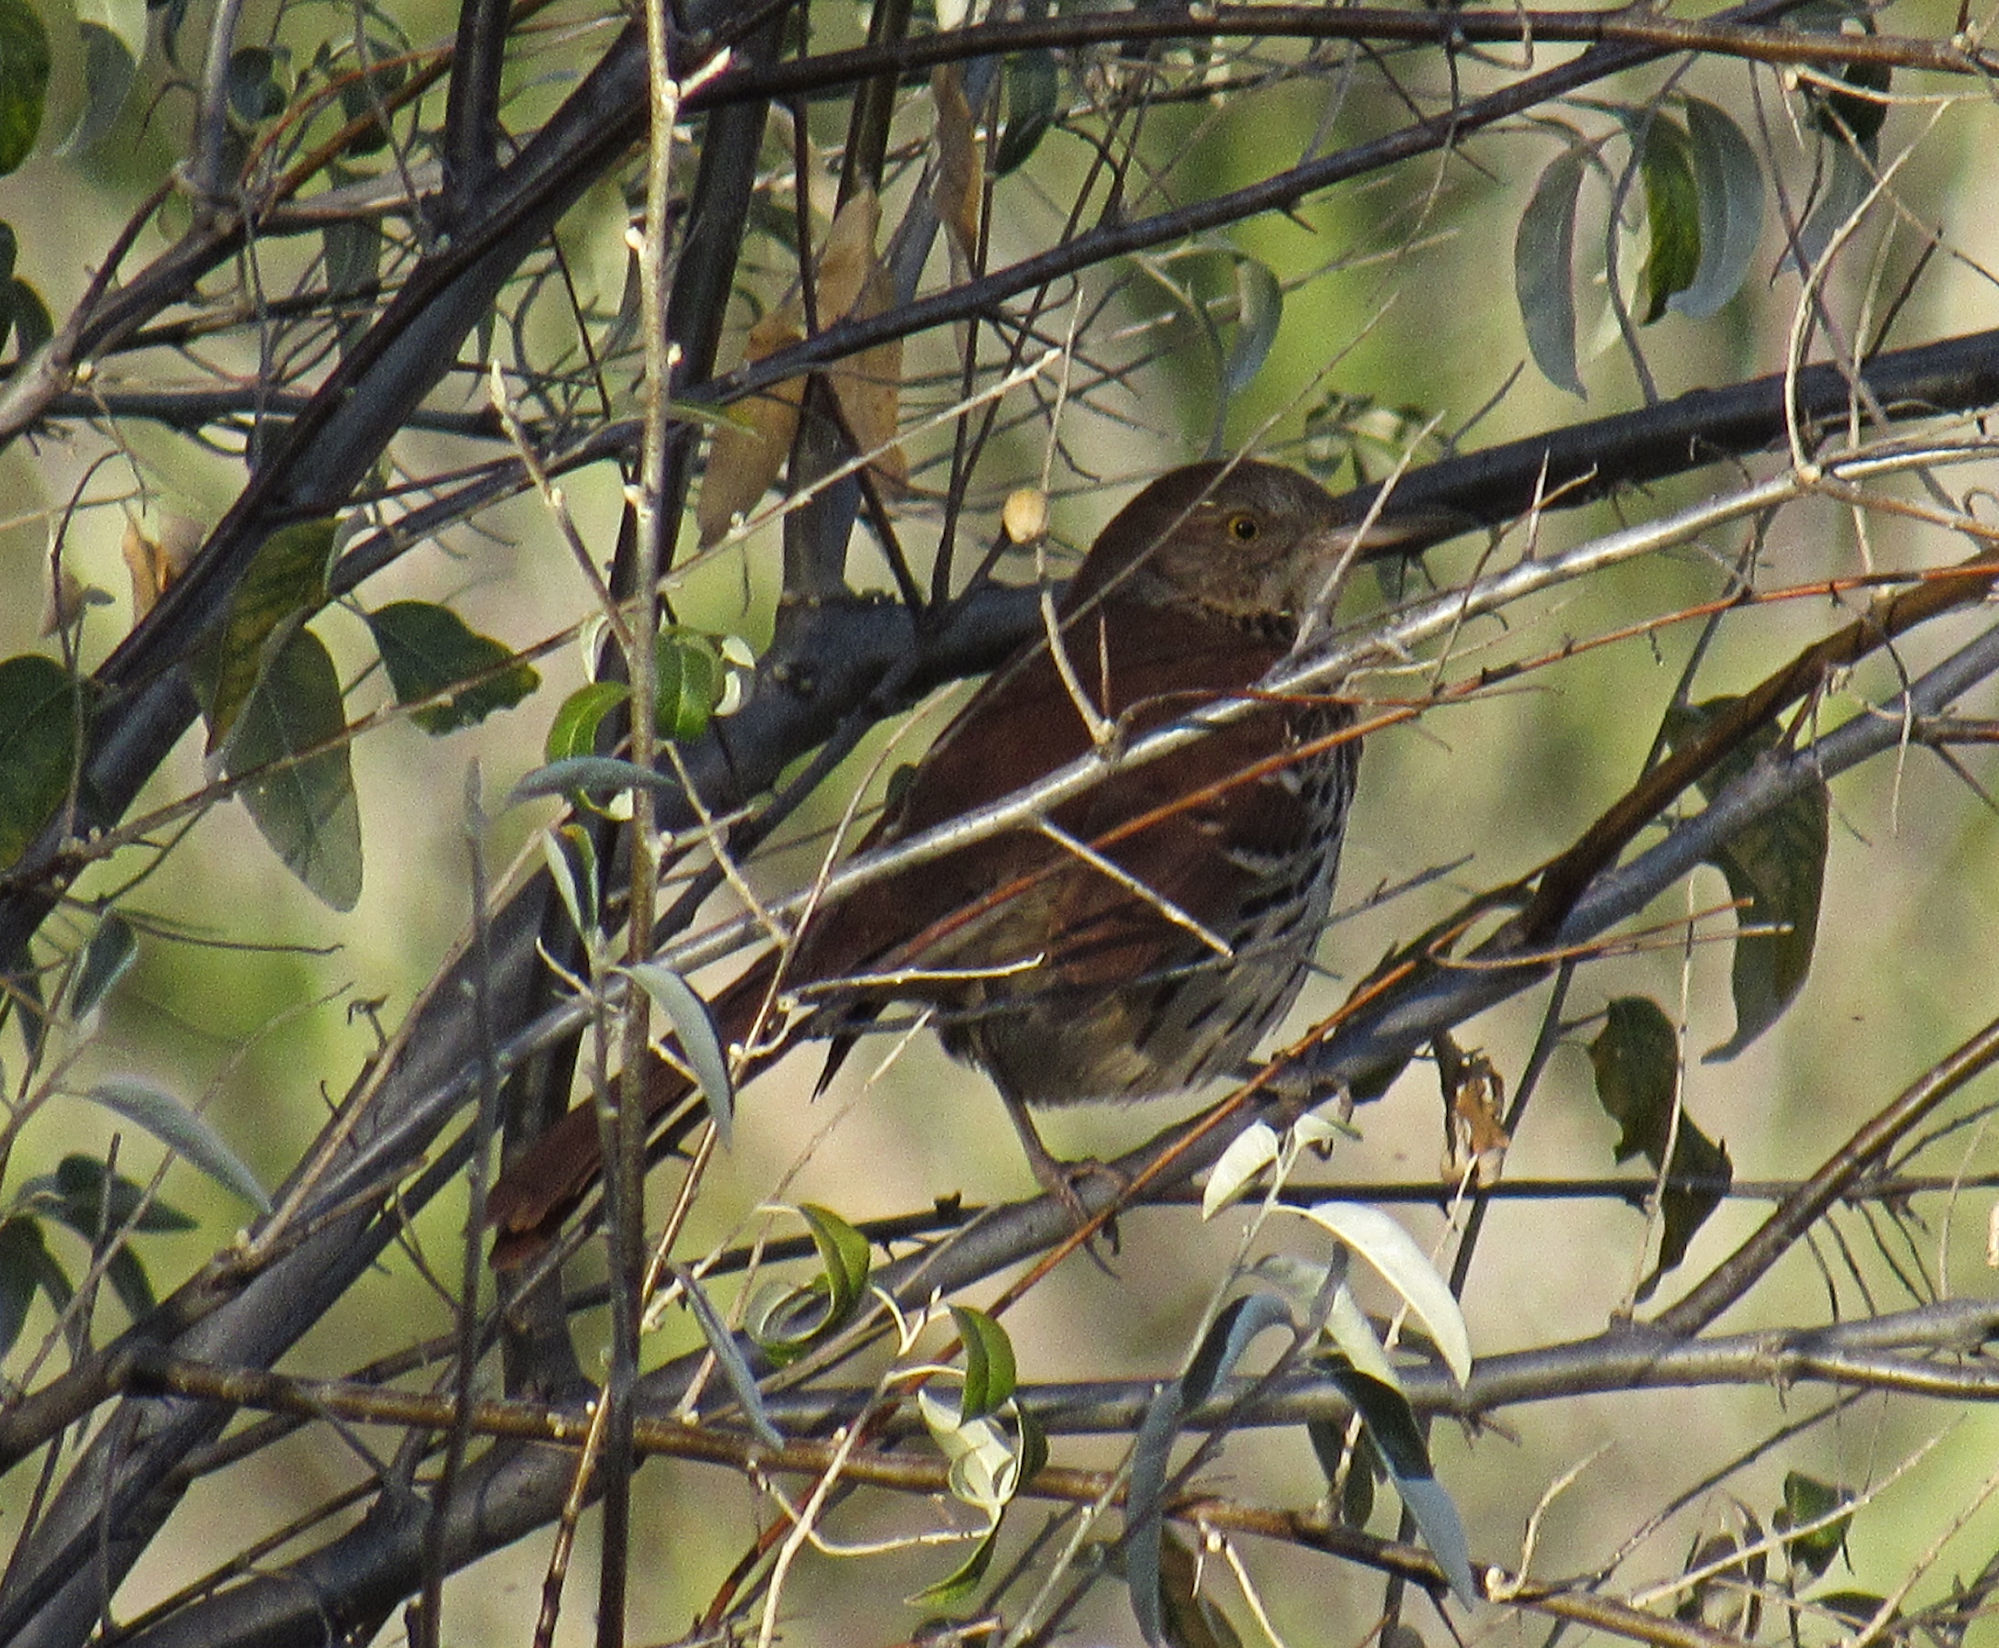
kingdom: Animalia
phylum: Chordata
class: Aves
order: Passeriformes
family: Mimidae
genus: Toxostoma
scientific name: Toxostoma rufum
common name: Brown thrasher
